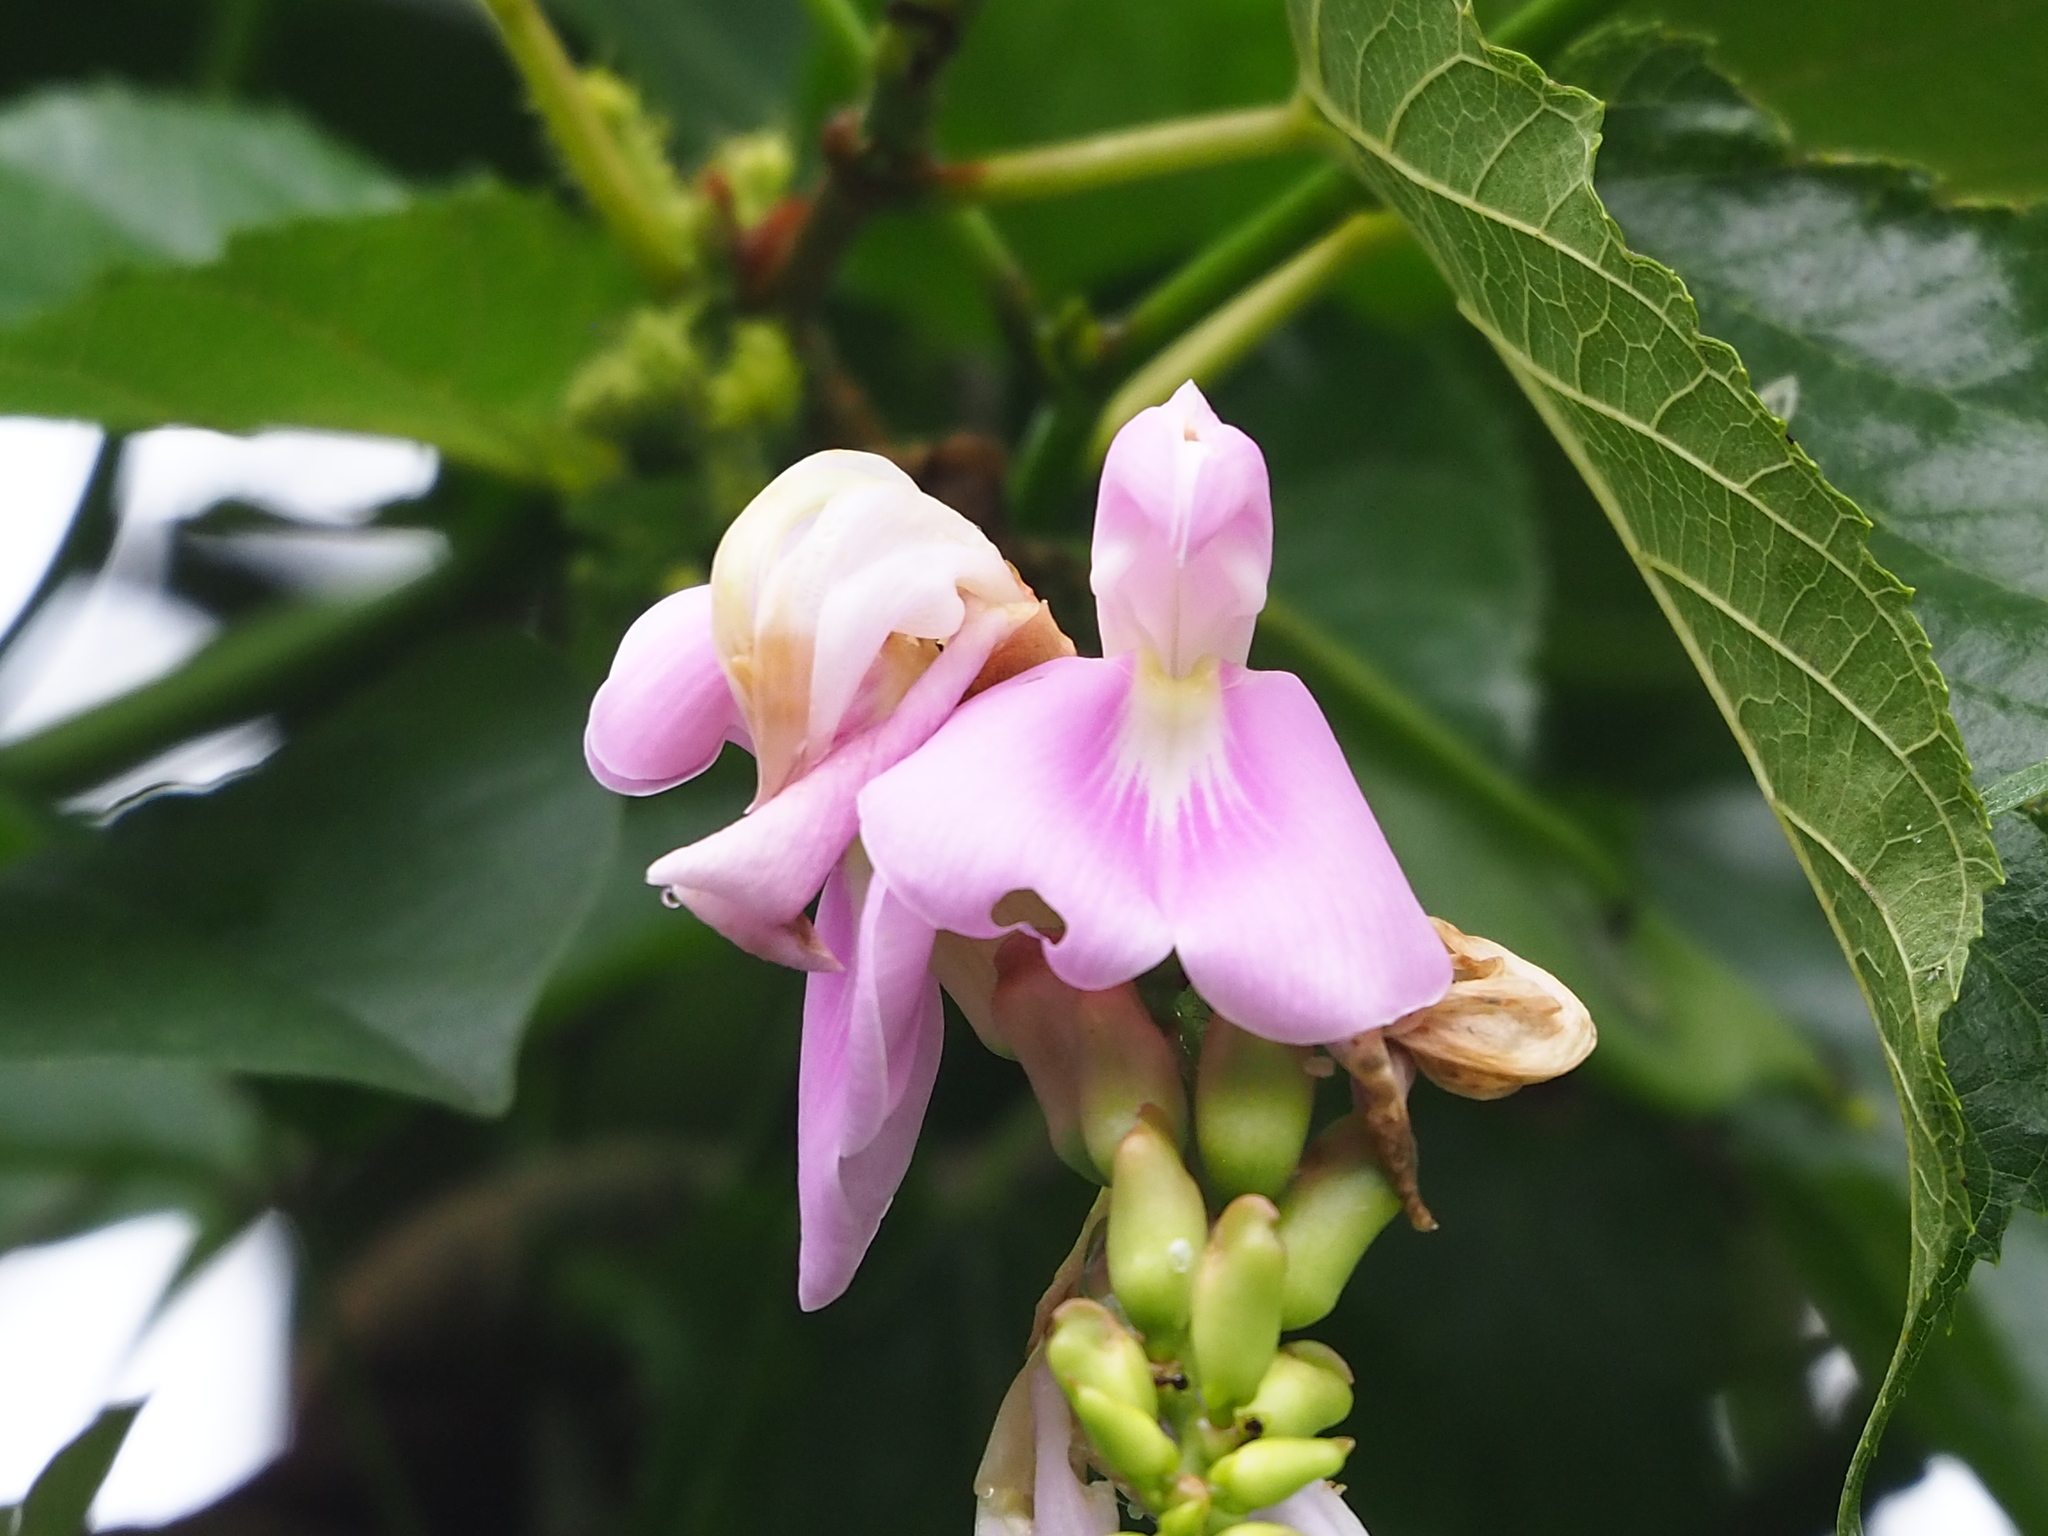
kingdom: Plantae
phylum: Tracheophyta
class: Magnoliopsida
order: Fabales
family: Fabaceae
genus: Canavalia
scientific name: Canavalia lineata
